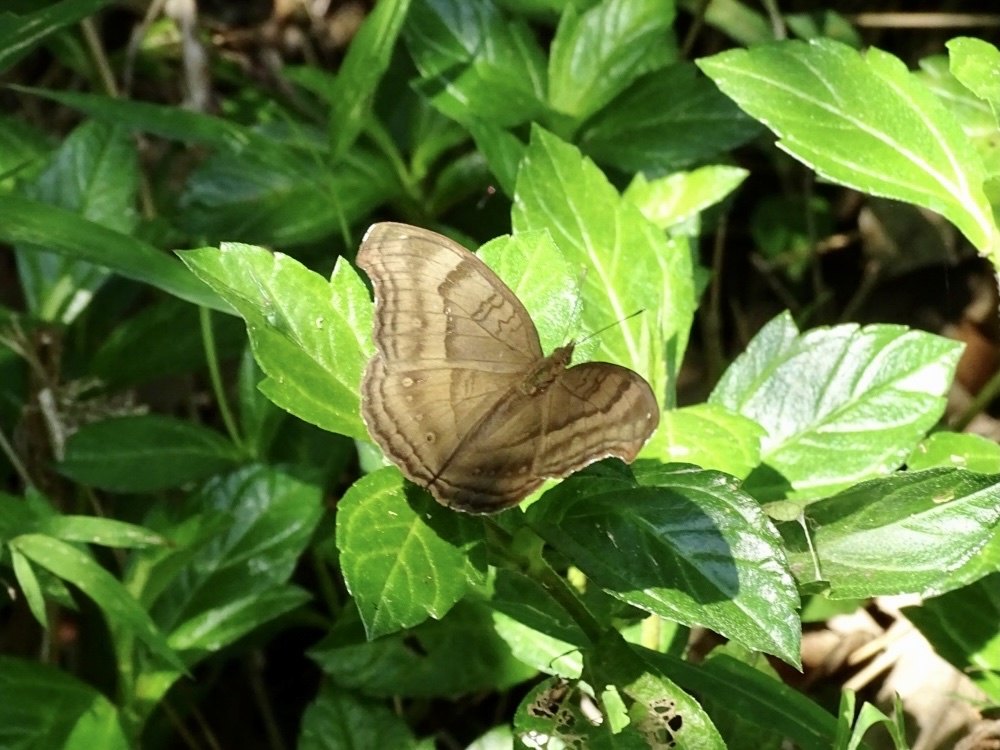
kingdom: Animalia
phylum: Arthropoda
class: Insecta
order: Lepidoptera
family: Nymphalidae
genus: Junonia
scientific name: Junonia iphita
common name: Chocolate pansy
